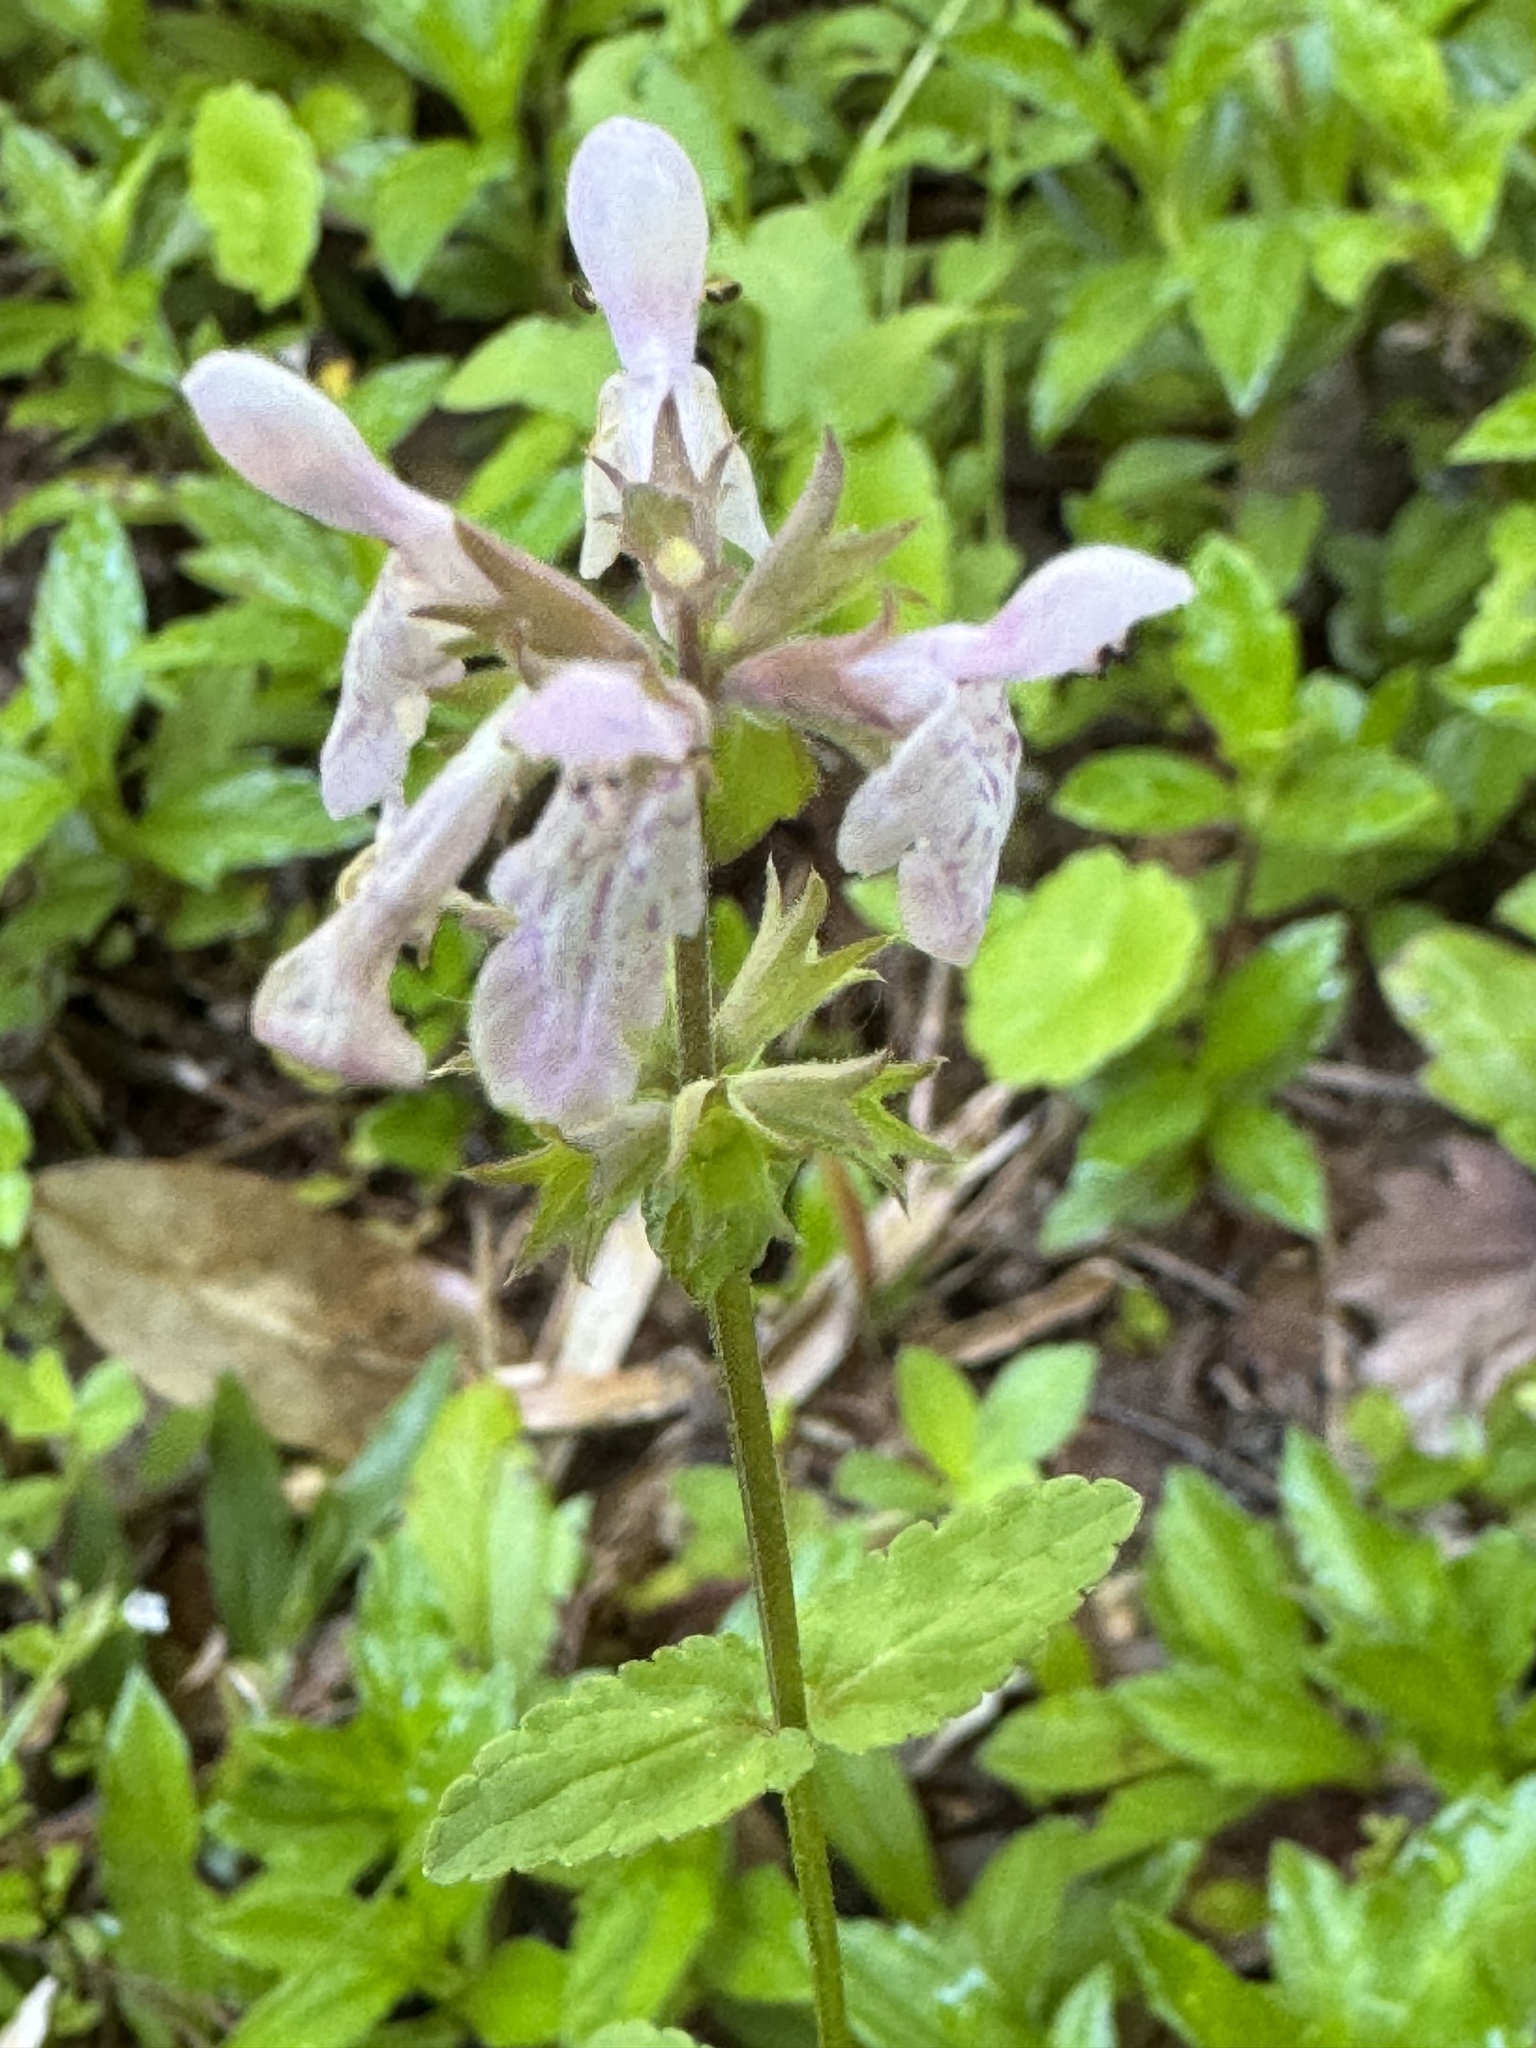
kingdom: Plantae
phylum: Tracheophyta
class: Magnoliopsida
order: Lamiales
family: Lamiaceae
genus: Stachys
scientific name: Stachys floridana
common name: Florida betony
